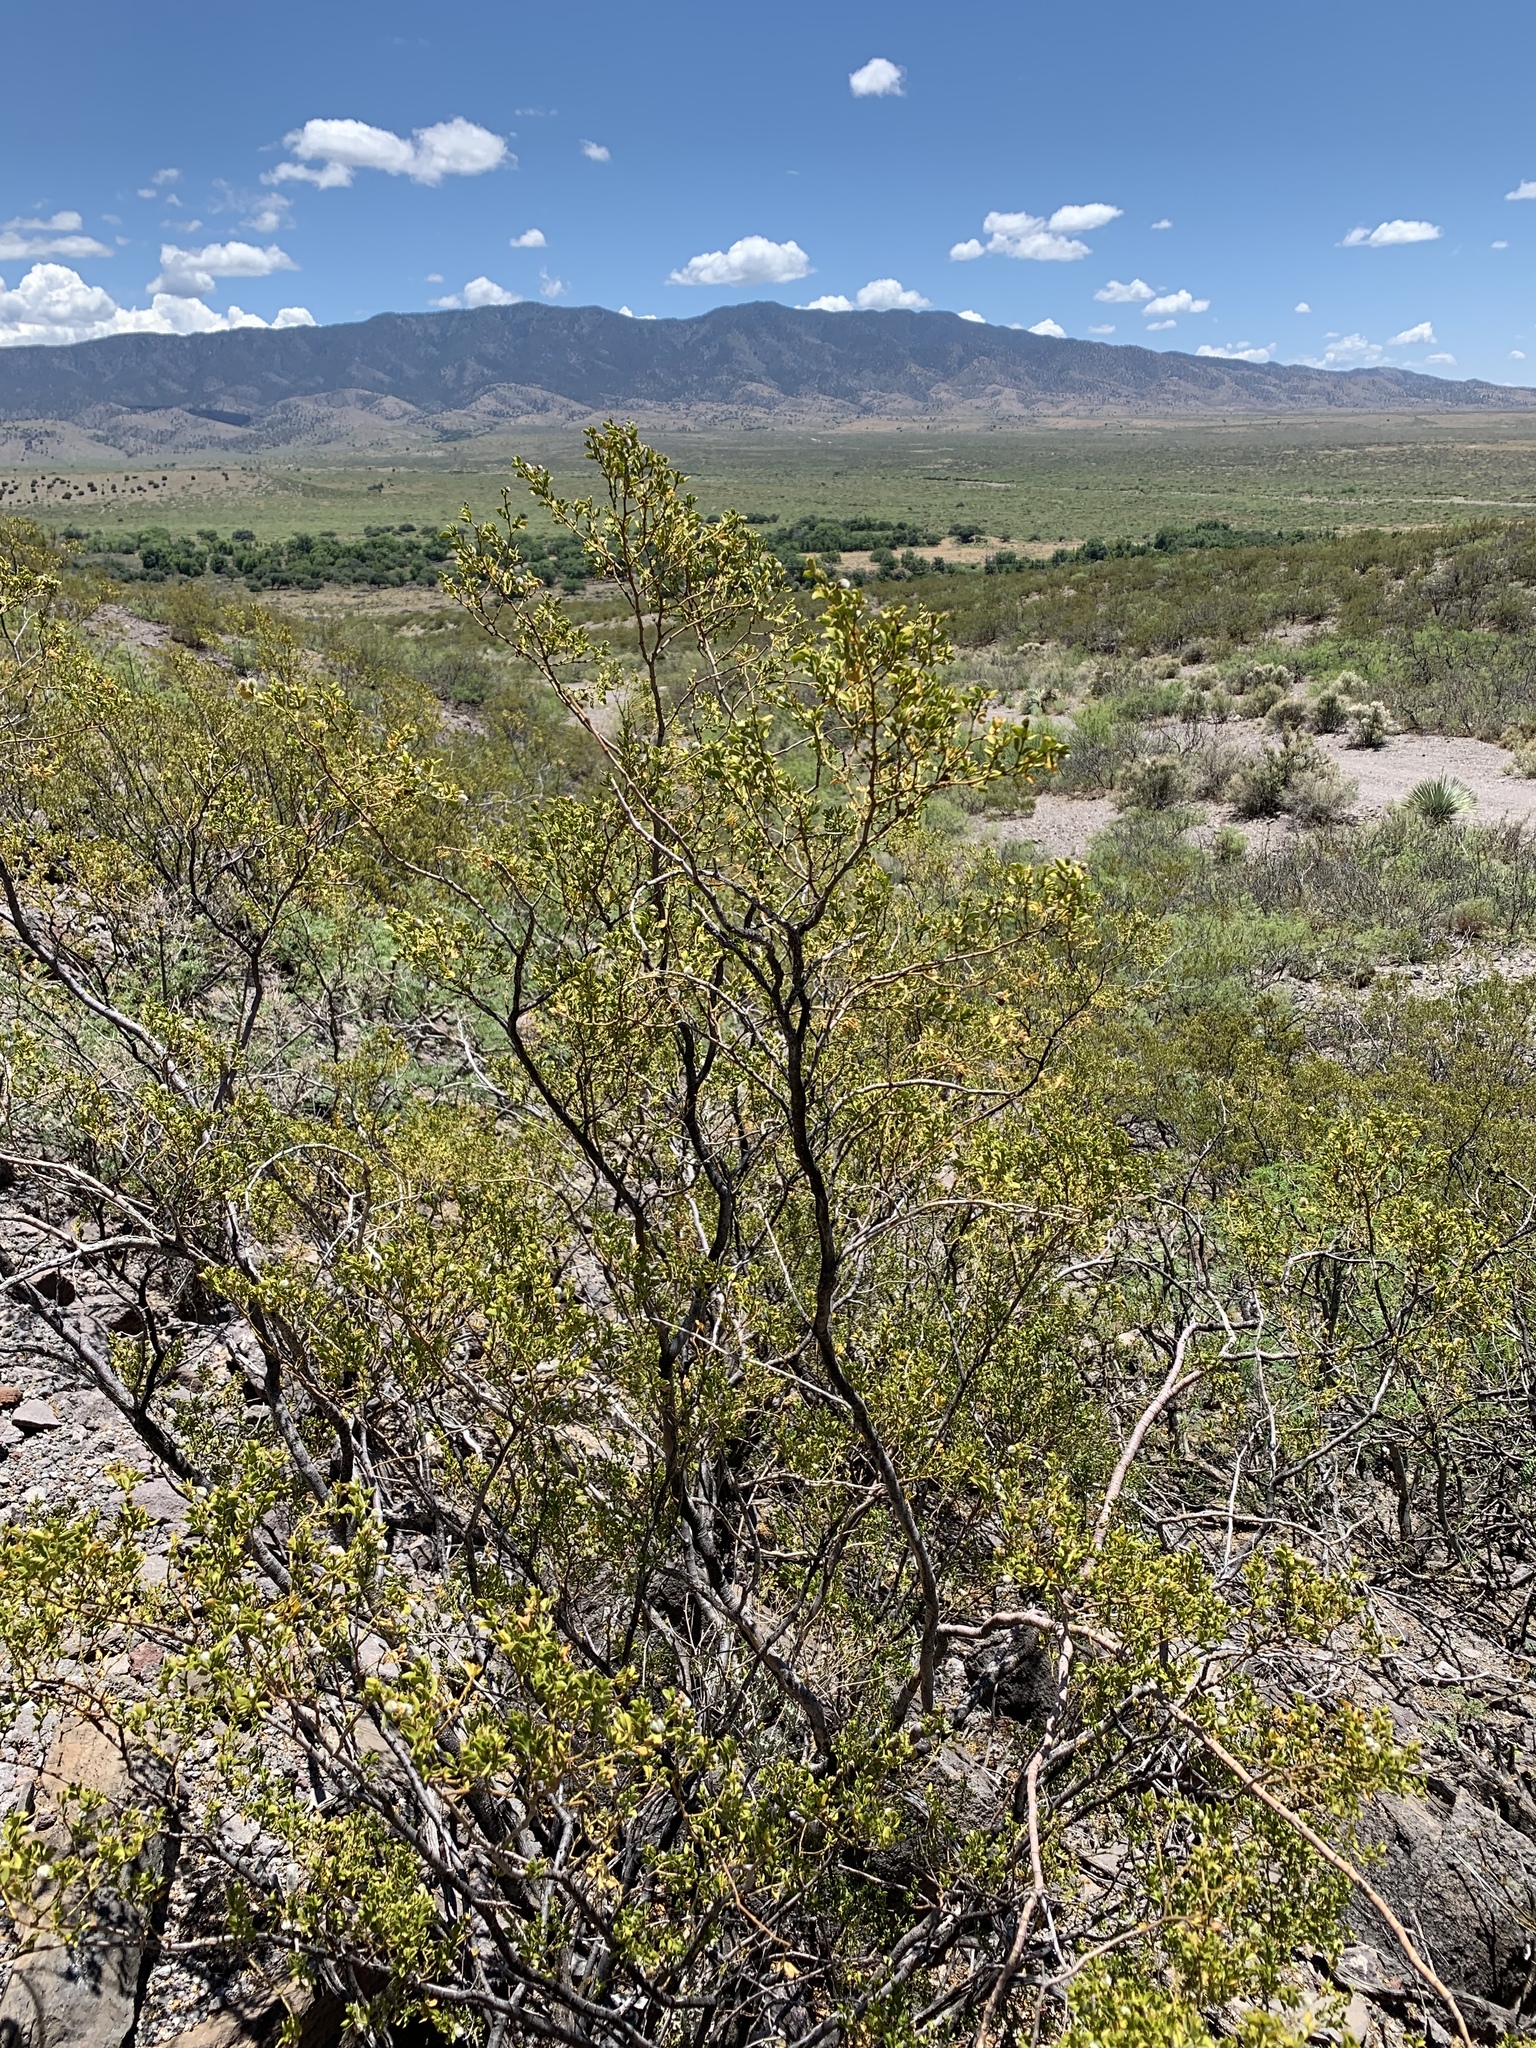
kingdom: Plantae
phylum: Tracheophyta
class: Magnoliopsida
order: Zygophyllales
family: Zygophyllaceae
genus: Larrea
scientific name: Larrea tridentata
